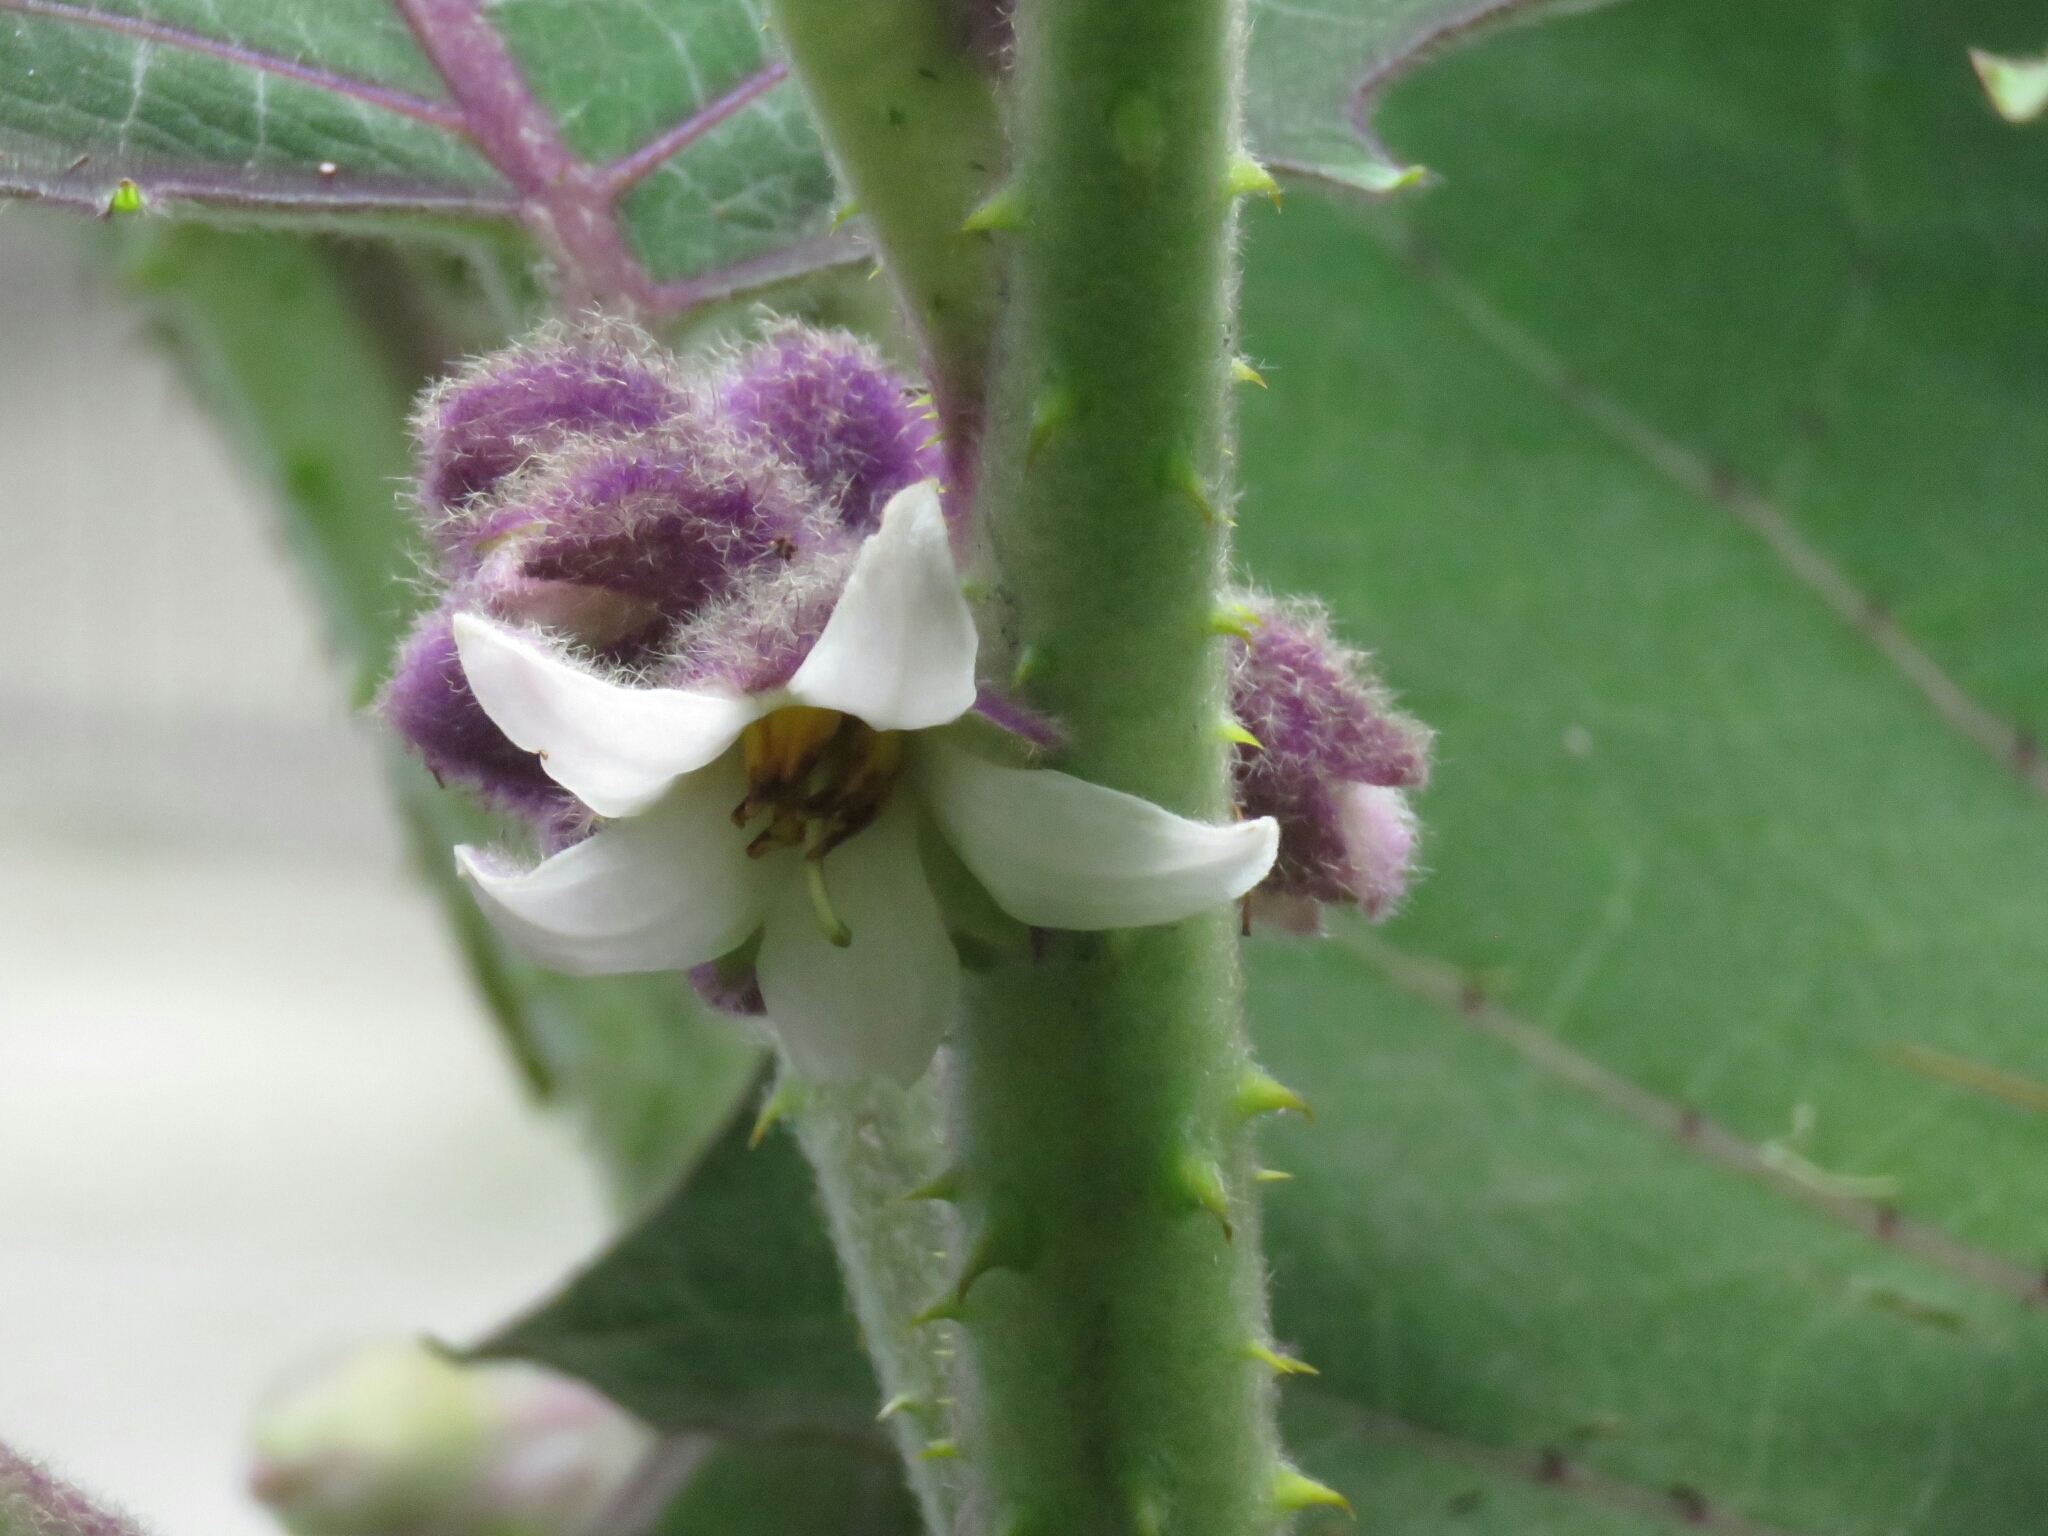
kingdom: Plantae
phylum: Tracheophyta
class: Magnoliopsida
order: Solanales
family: Solanaceae
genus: Solanum
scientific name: Solanum quitoense
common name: Quito-orange
